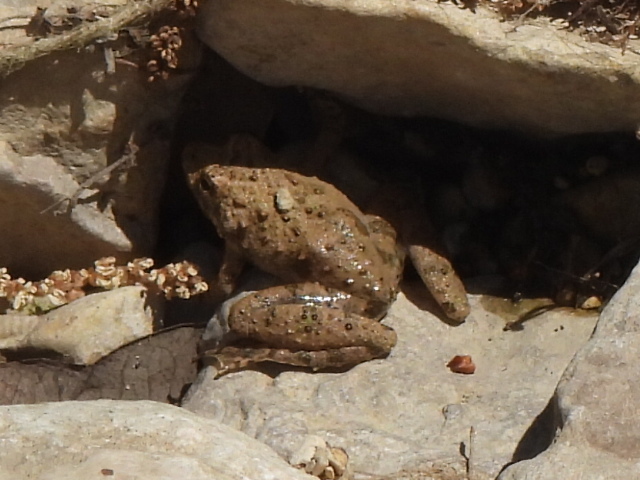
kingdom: Animalia
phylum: Chordata
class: Amphibia
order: Anura
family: Hylidae
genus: Acris
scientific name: Acris blanchardi
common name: Blanchard's cricket frog
